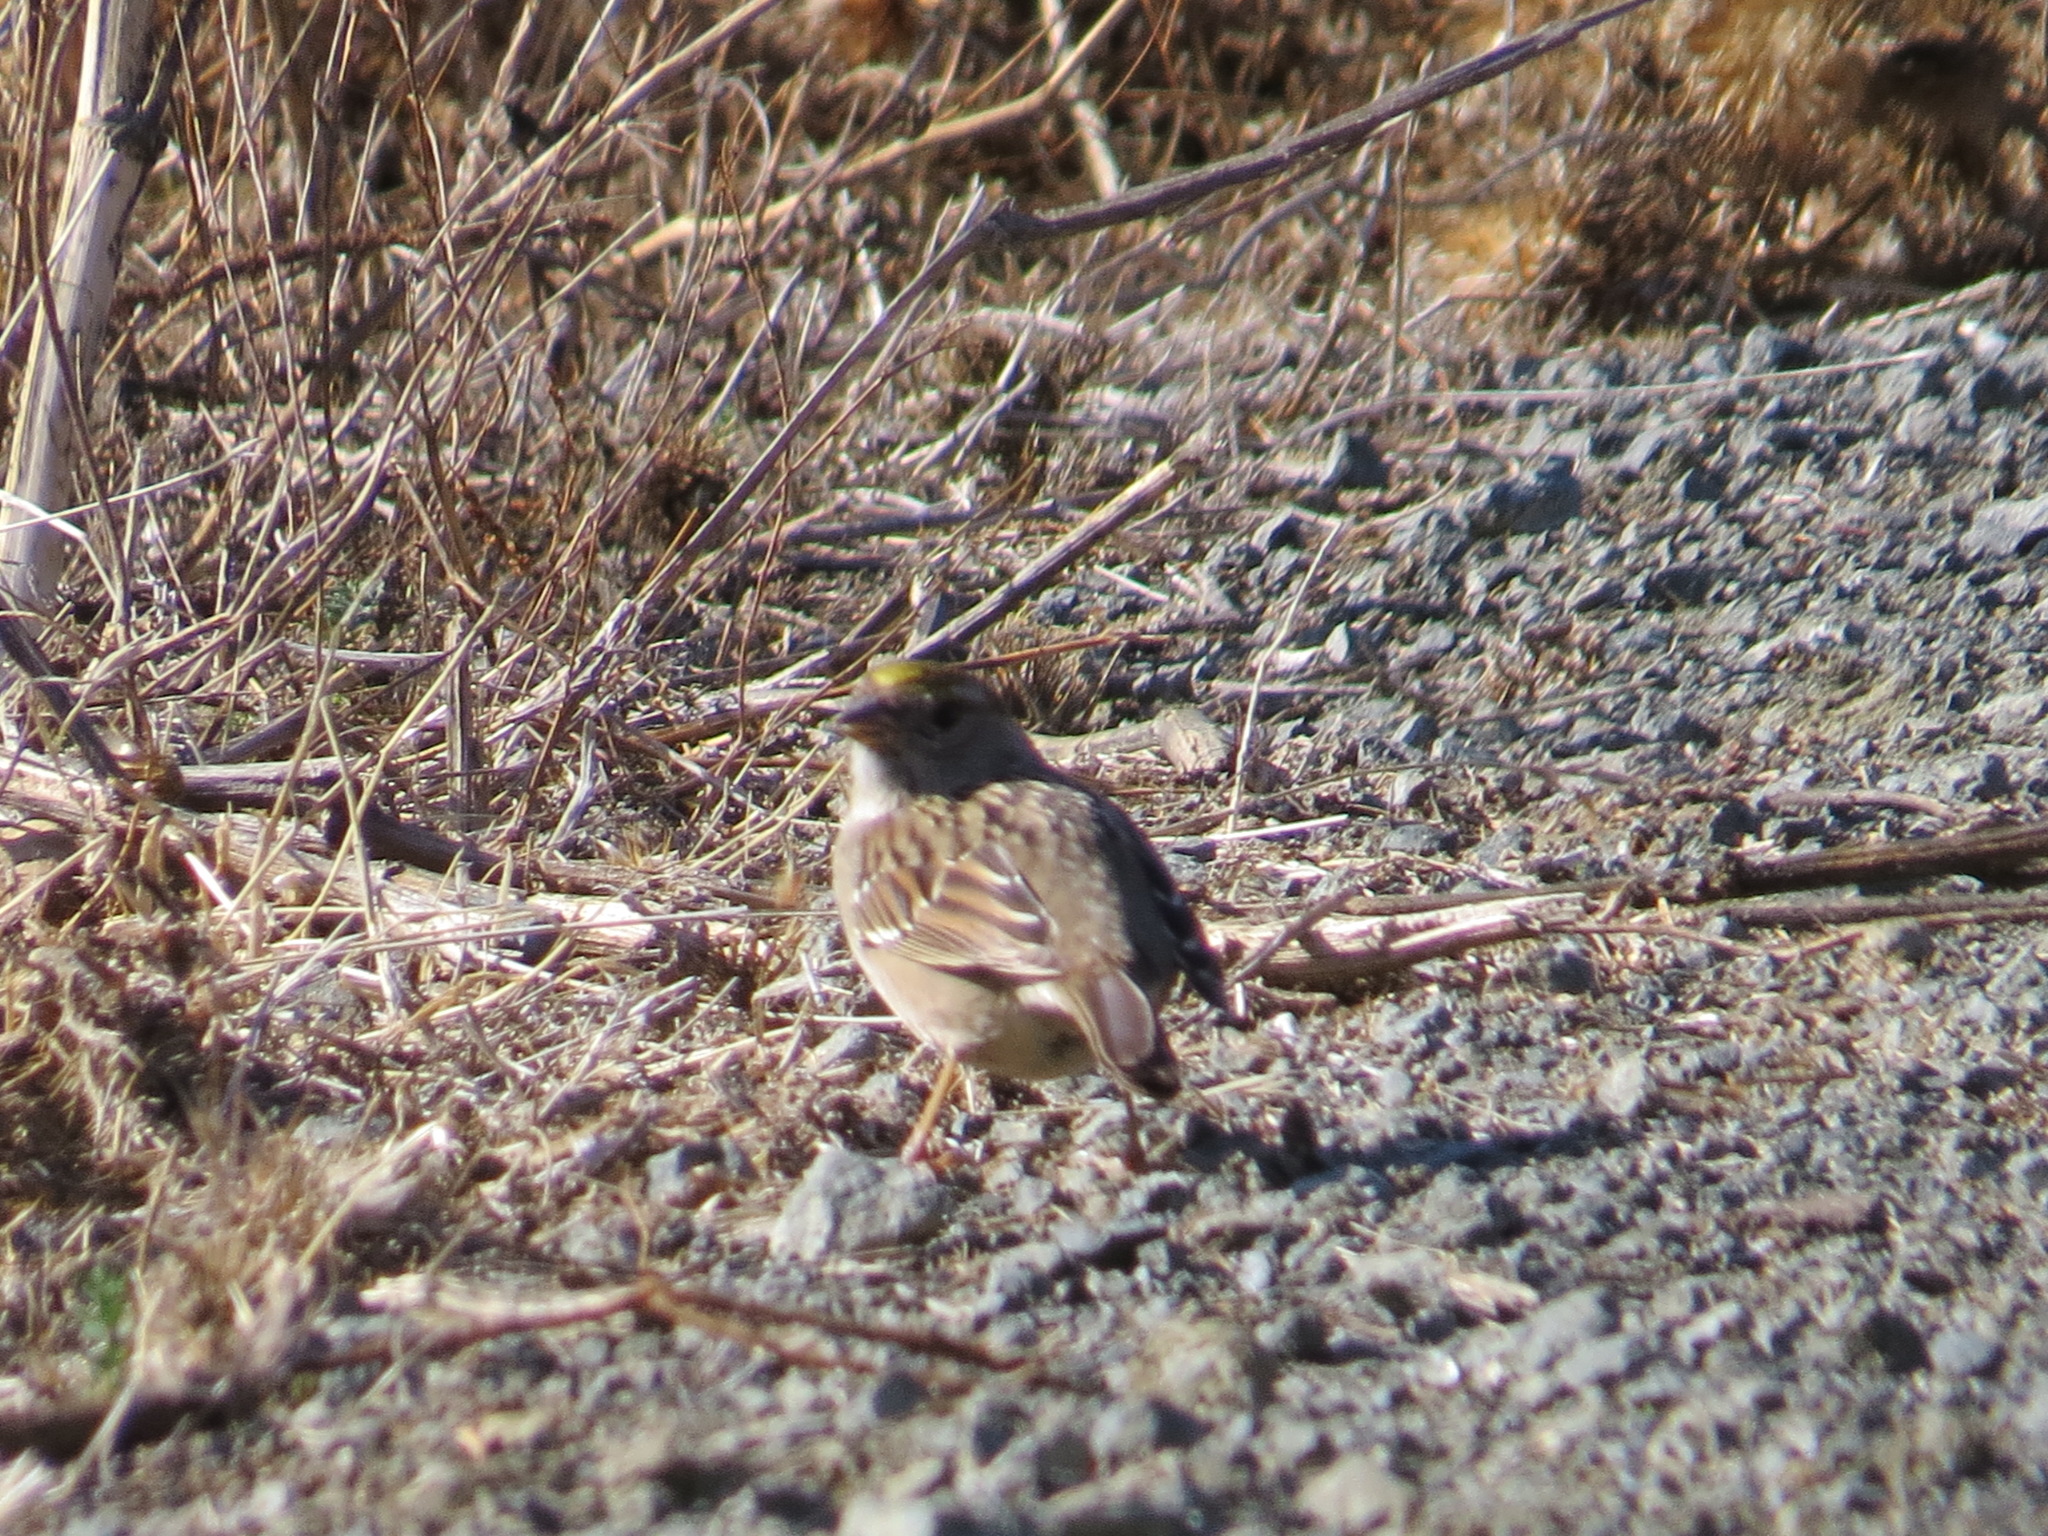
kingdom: Animalia
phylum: Chordata
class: Aves
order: Passeriformes
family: Passerellidae
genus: Zonotrichia
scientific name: Zonotrichia atricapilla
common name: Golden-crowned sparrow
